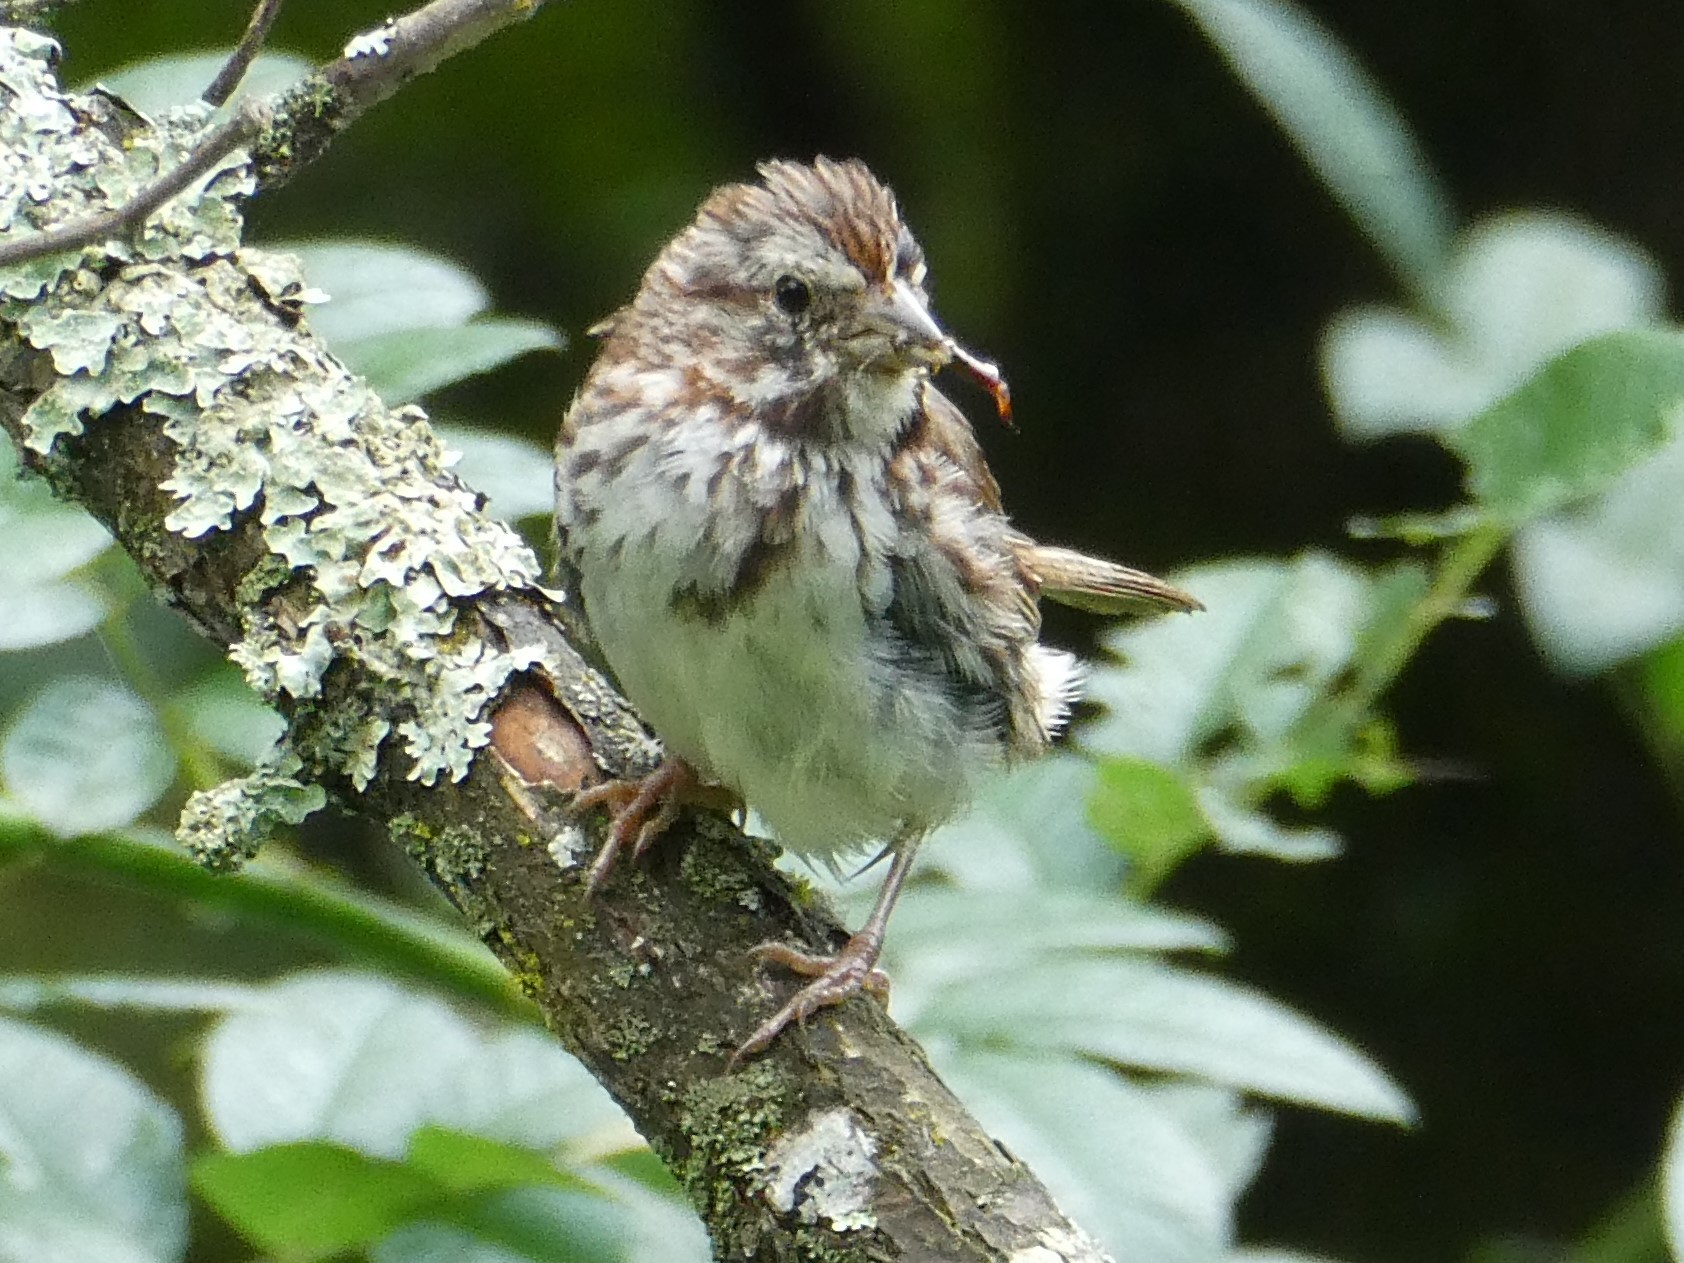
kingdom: Animalia
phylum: Chordata
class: Aves
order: Passeriformes
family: Passerellidae
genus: Melospiza
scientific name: Melospiza melodia
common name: Song sparrow
